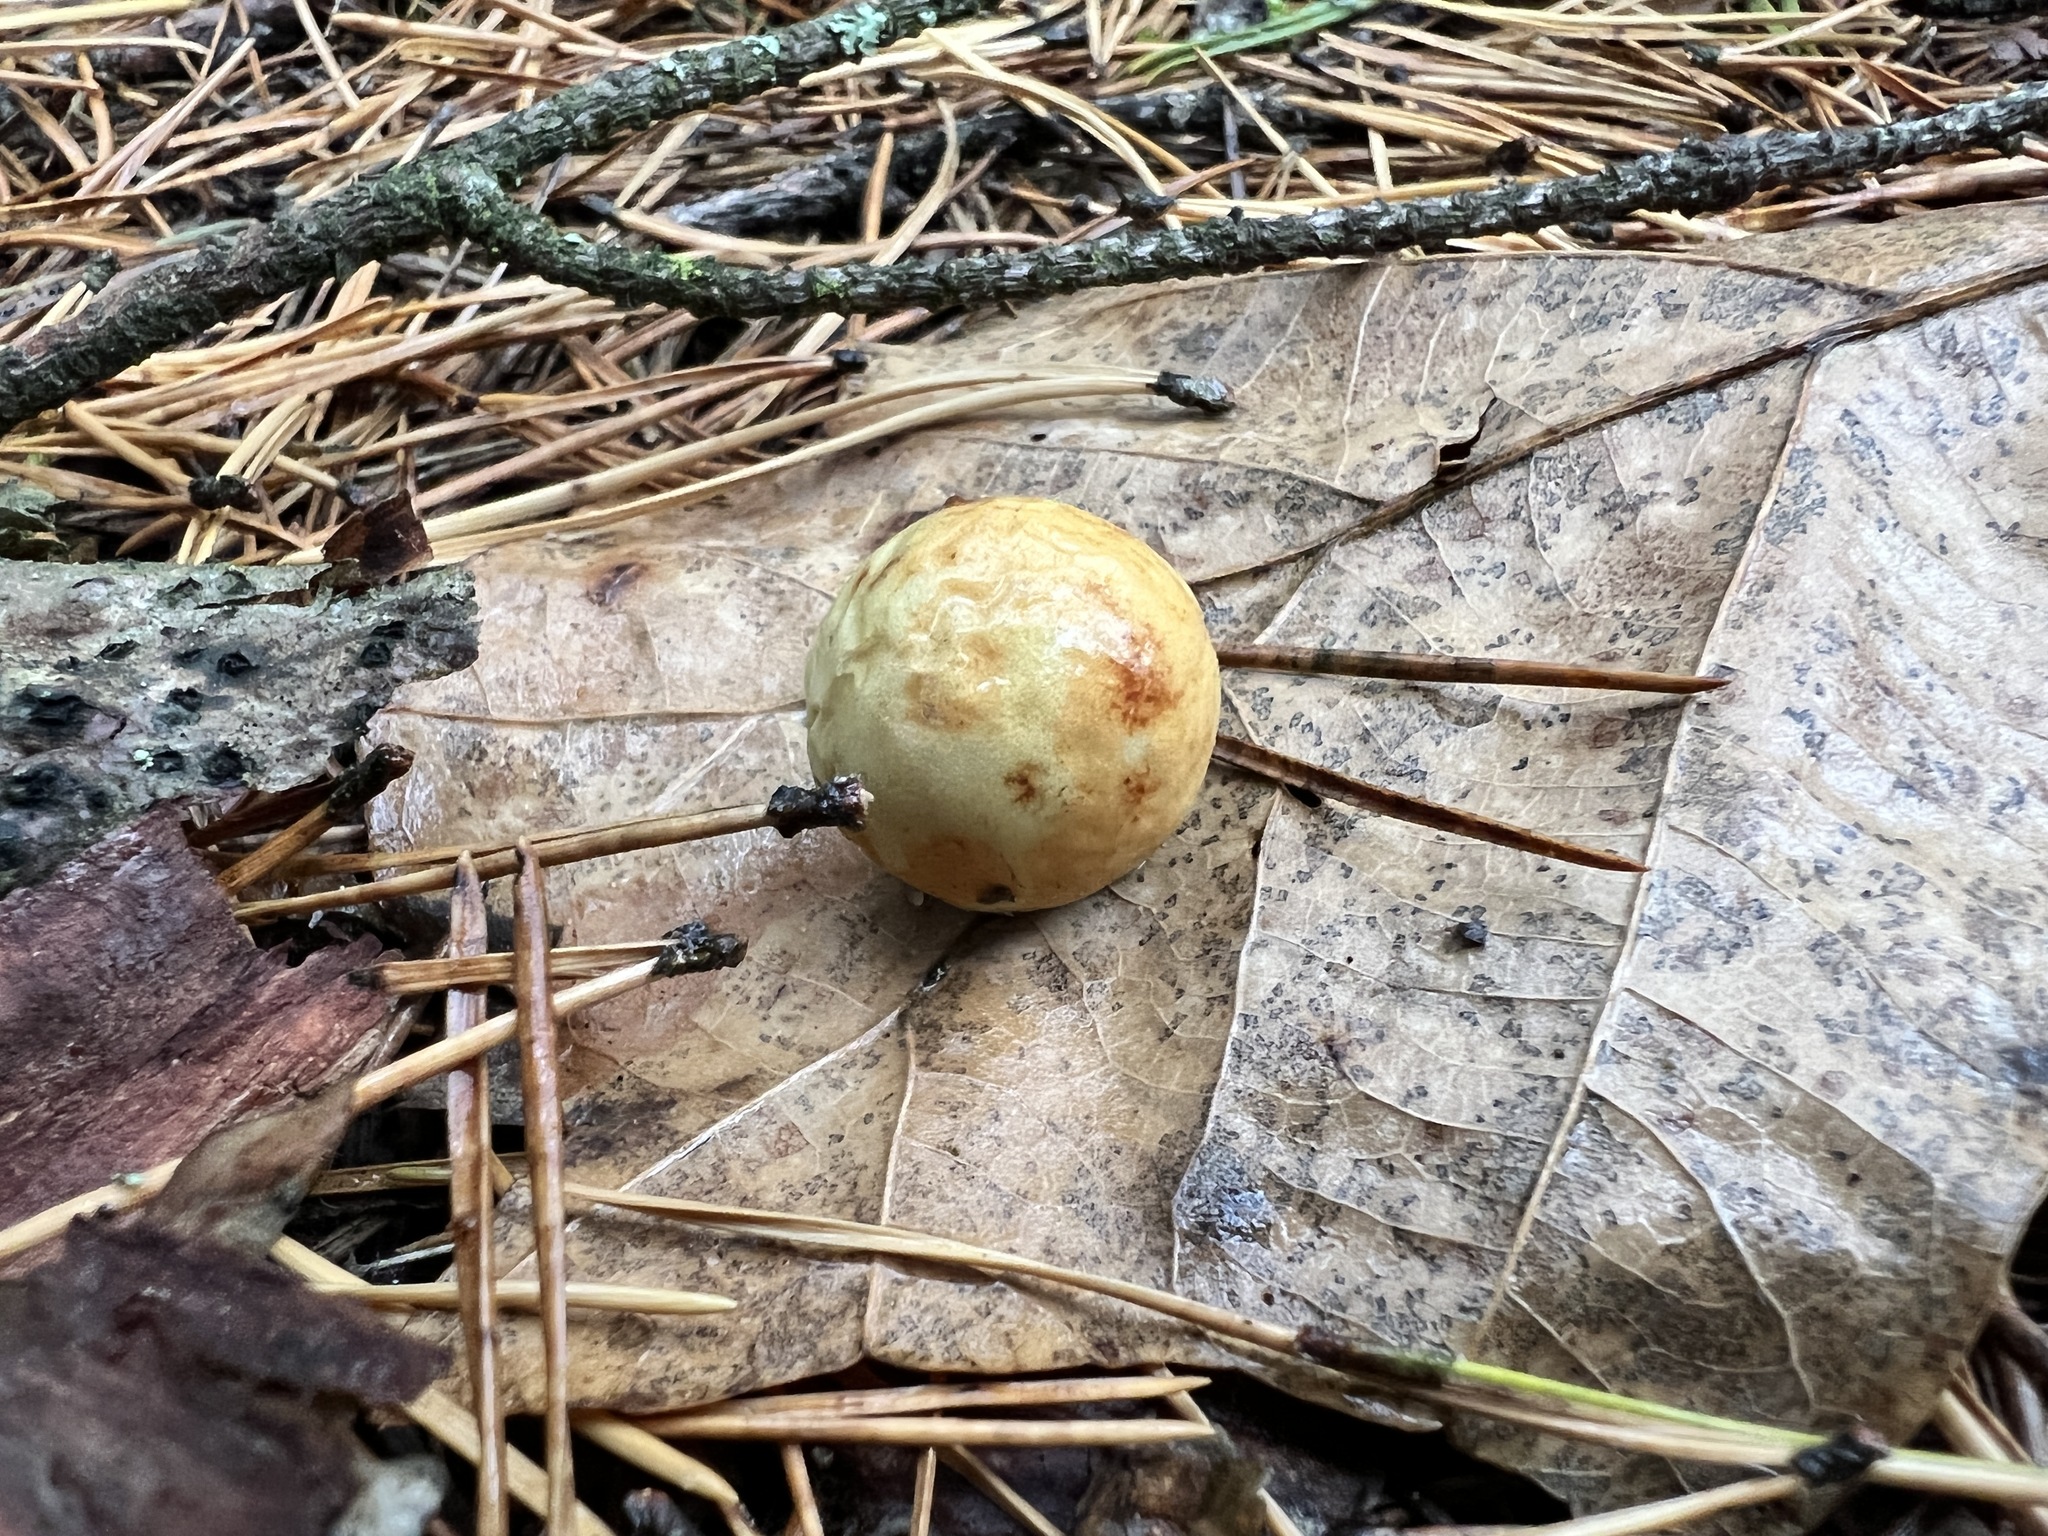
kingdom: Animalia
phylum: Arthropoda
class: Insecta
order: Hymenoptera
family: Cynipidae
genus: Cynips
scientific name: Cynips quercusfolii
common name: Cherry gall
